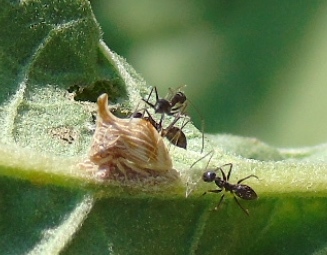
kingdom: Animalia
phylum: Arthropoda
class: Insecta
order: Hemiptera
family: Membracidae
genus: Publilia
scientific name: Publilia erecta
